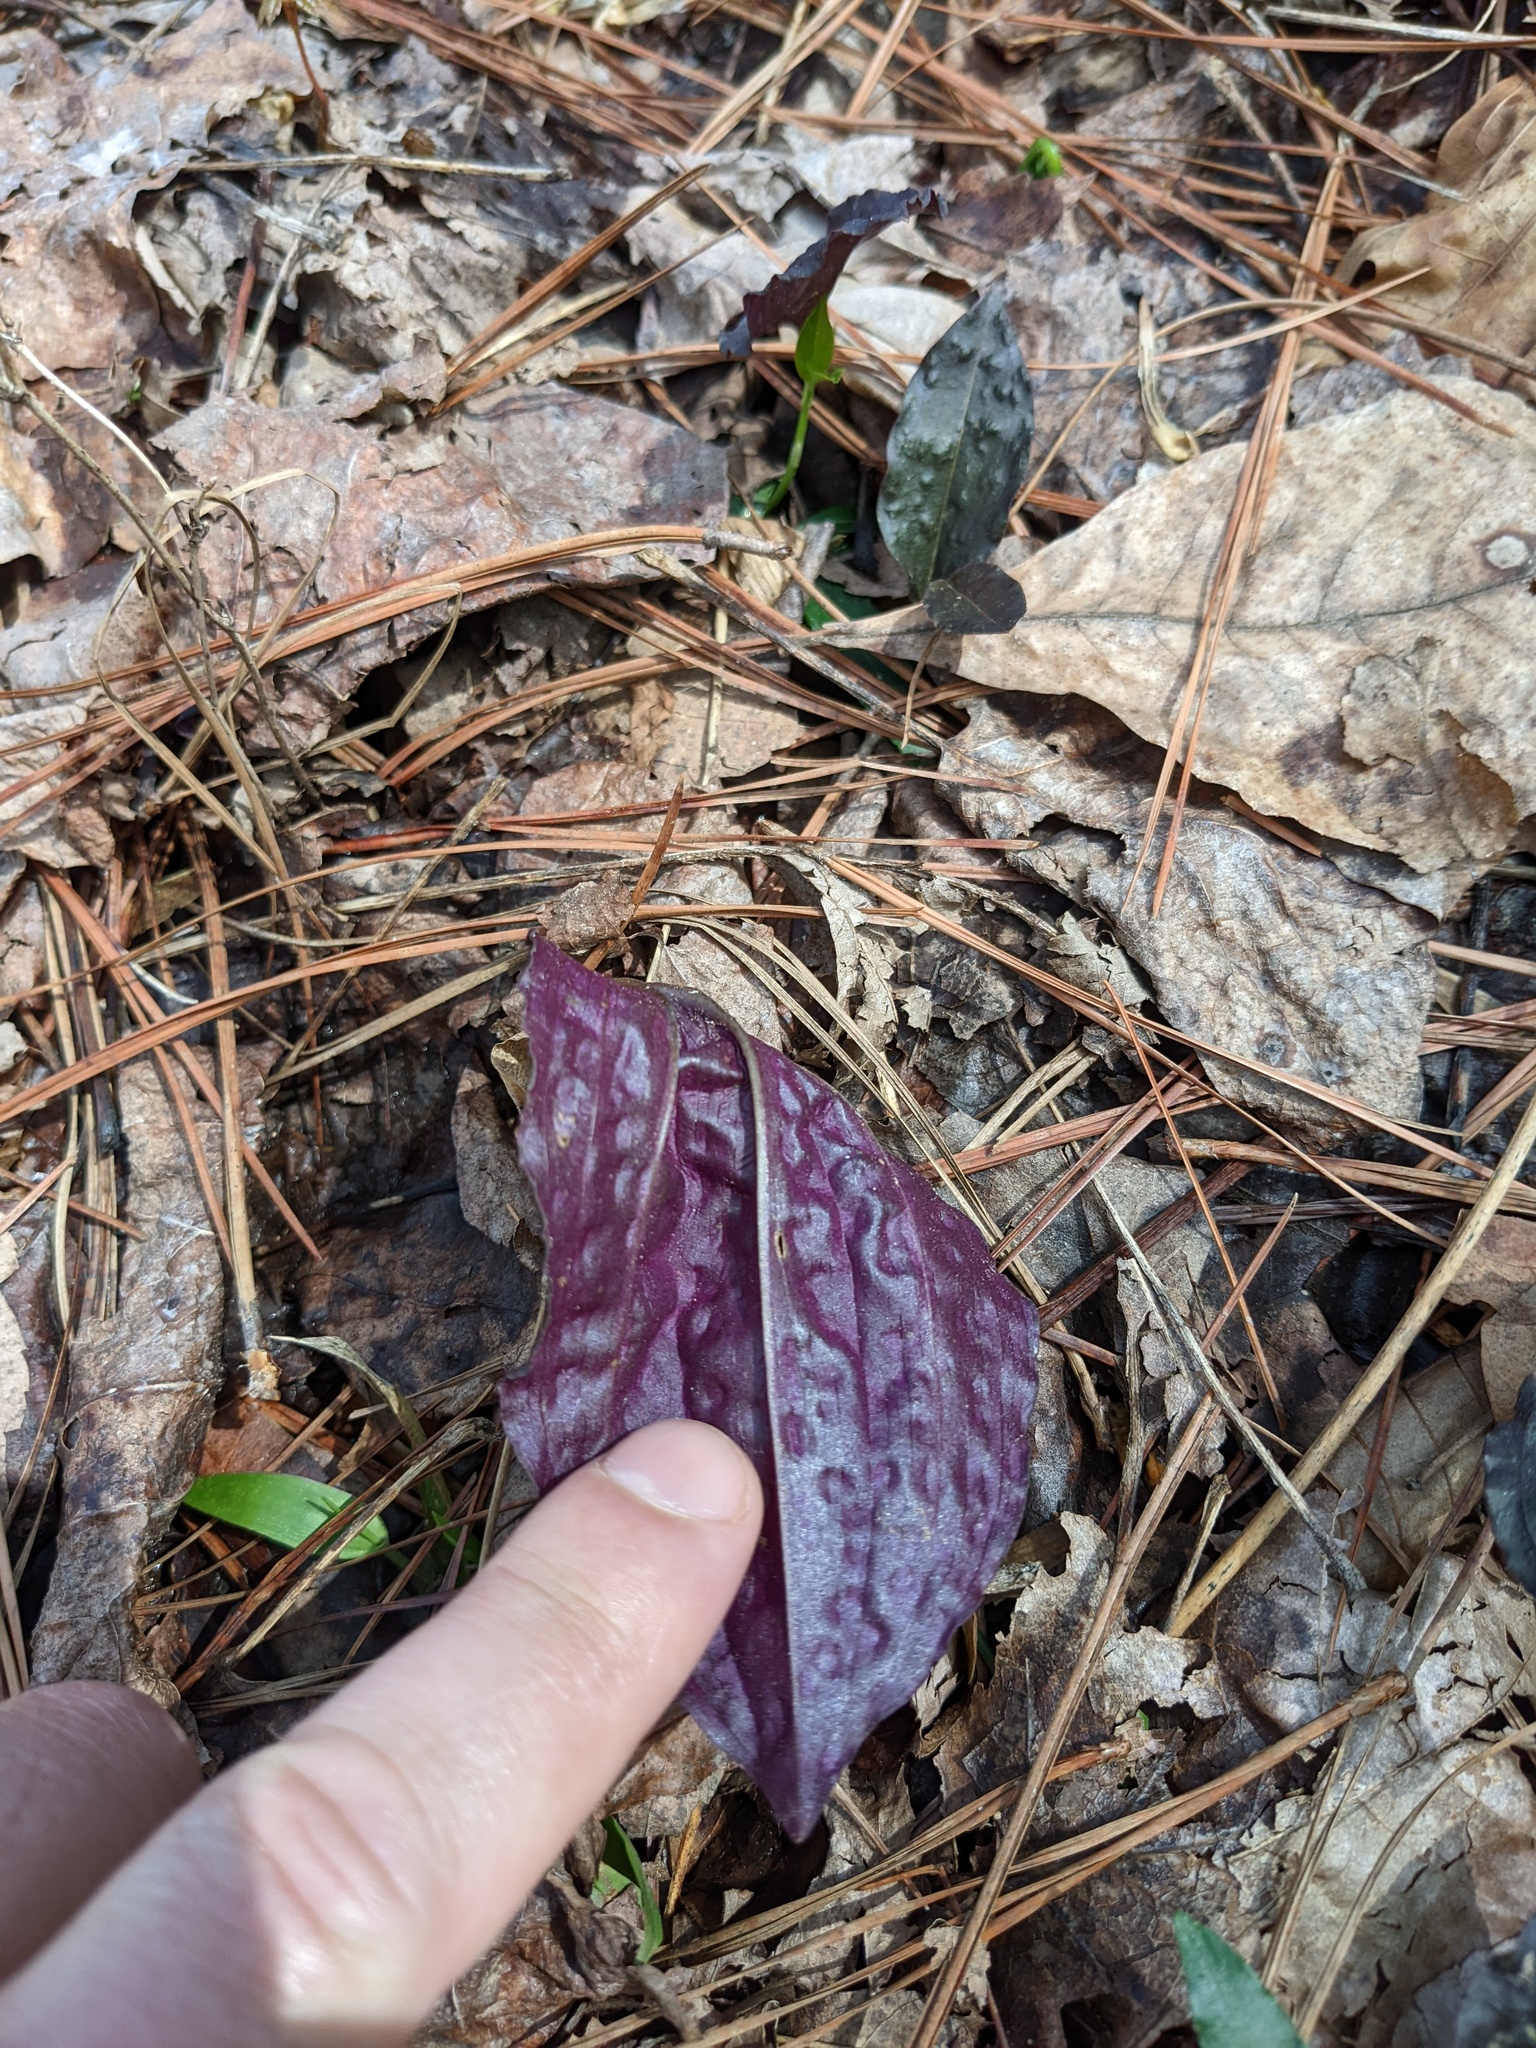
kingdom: Plantae
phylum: Tracheophyta
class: Liliopsida
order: Asparagales
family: Orchidaceae
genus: Tipularia
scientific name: Tipularia discolor
